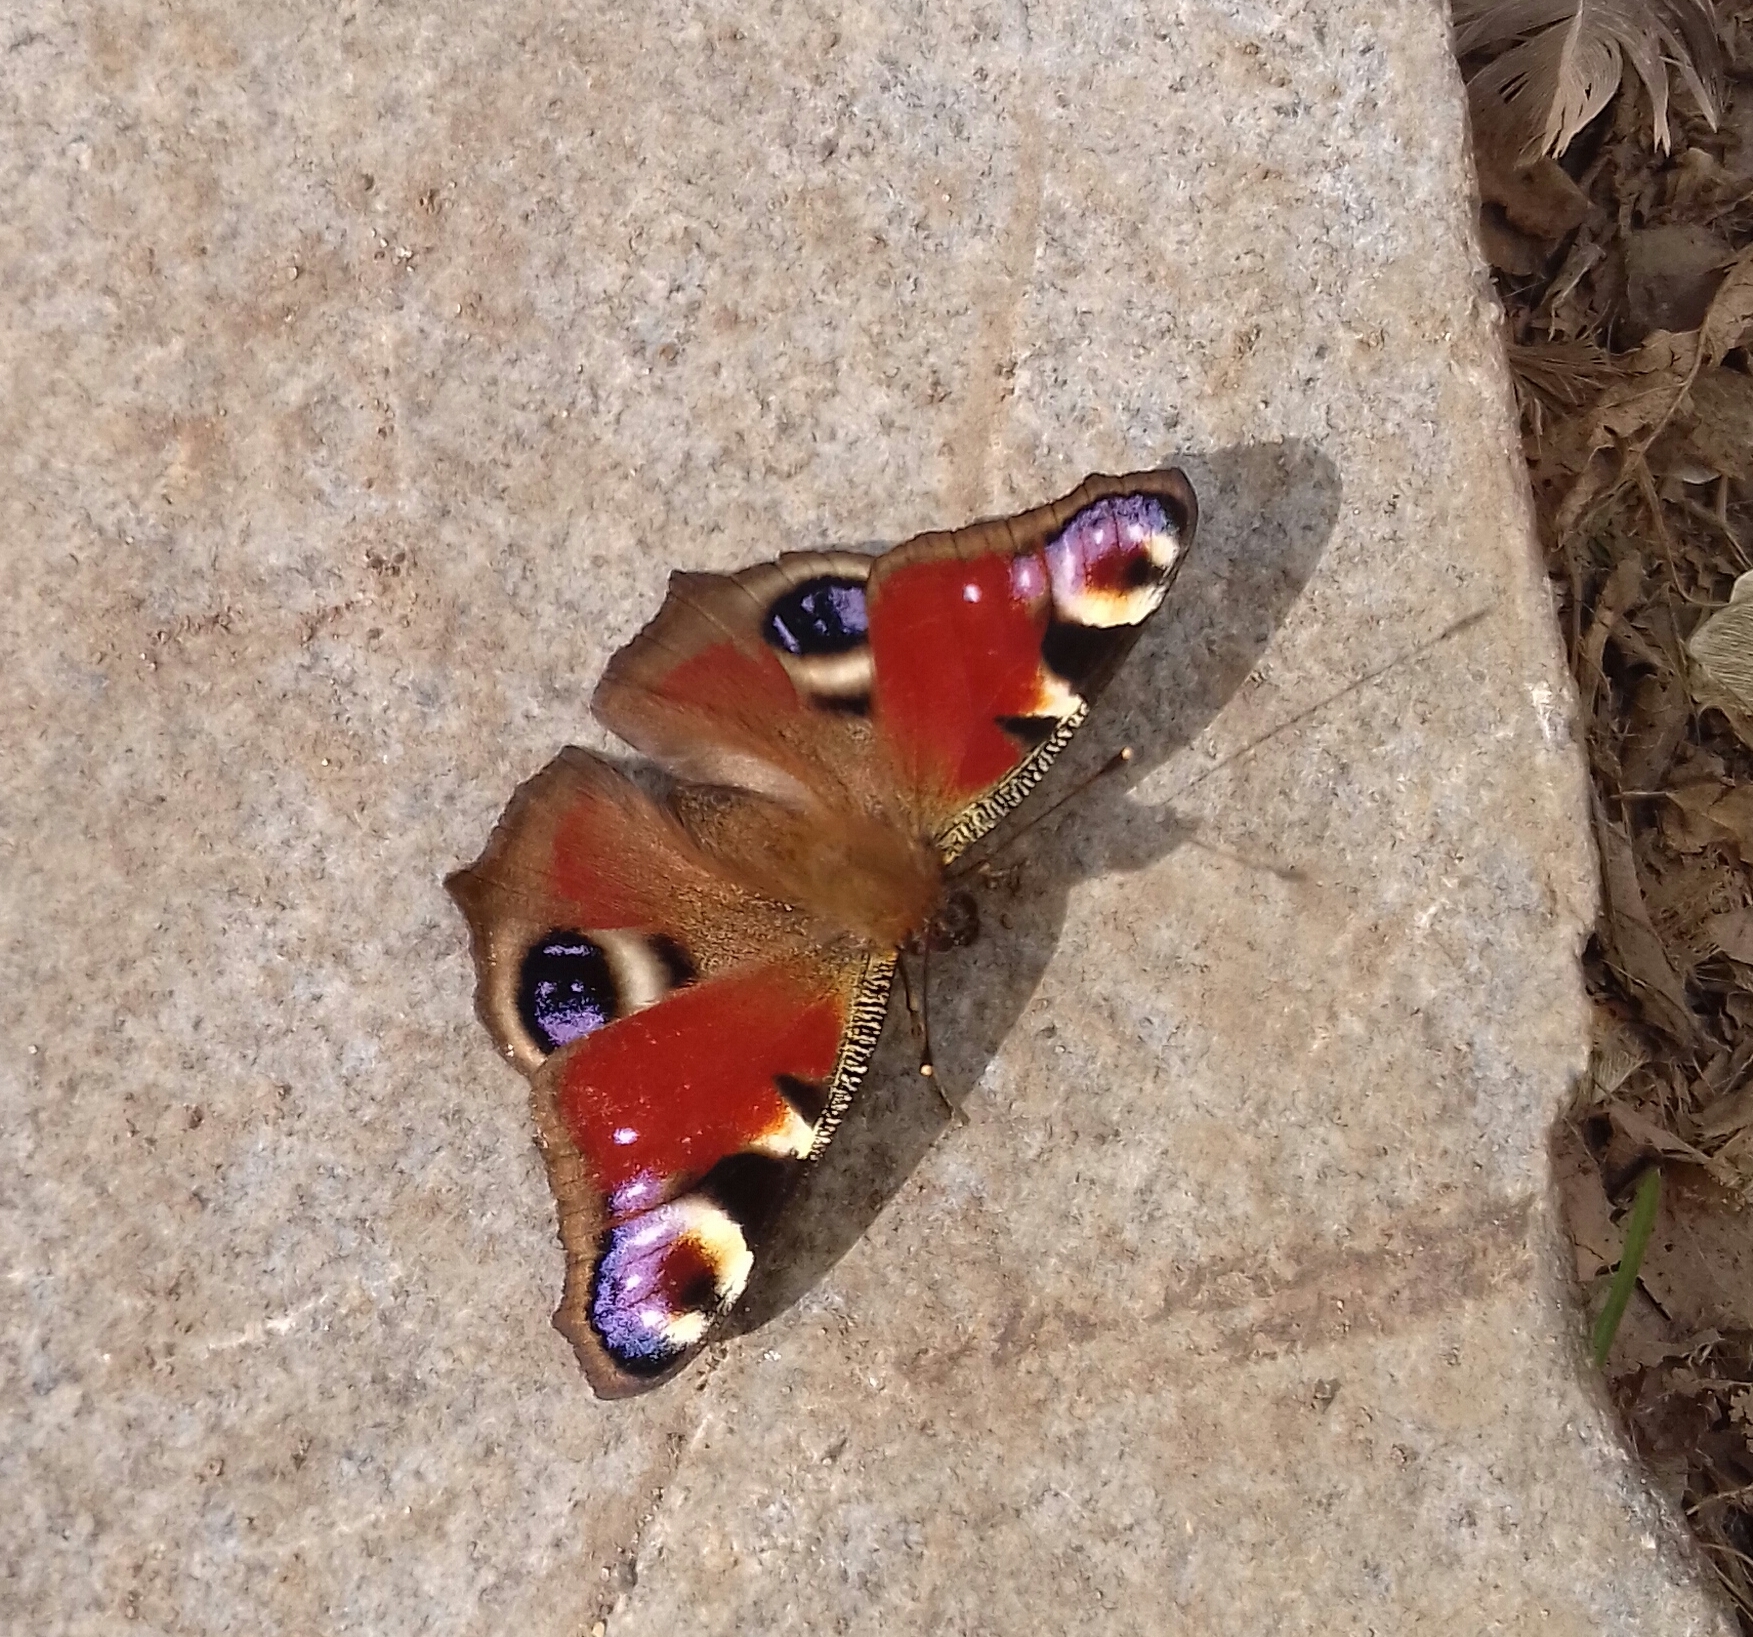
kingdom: Animalia
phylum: Arthropoda
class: Insecta
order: Lepidoptera
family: Nymphalidae
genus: Aglais
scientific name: Aglais io
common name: Peacock
